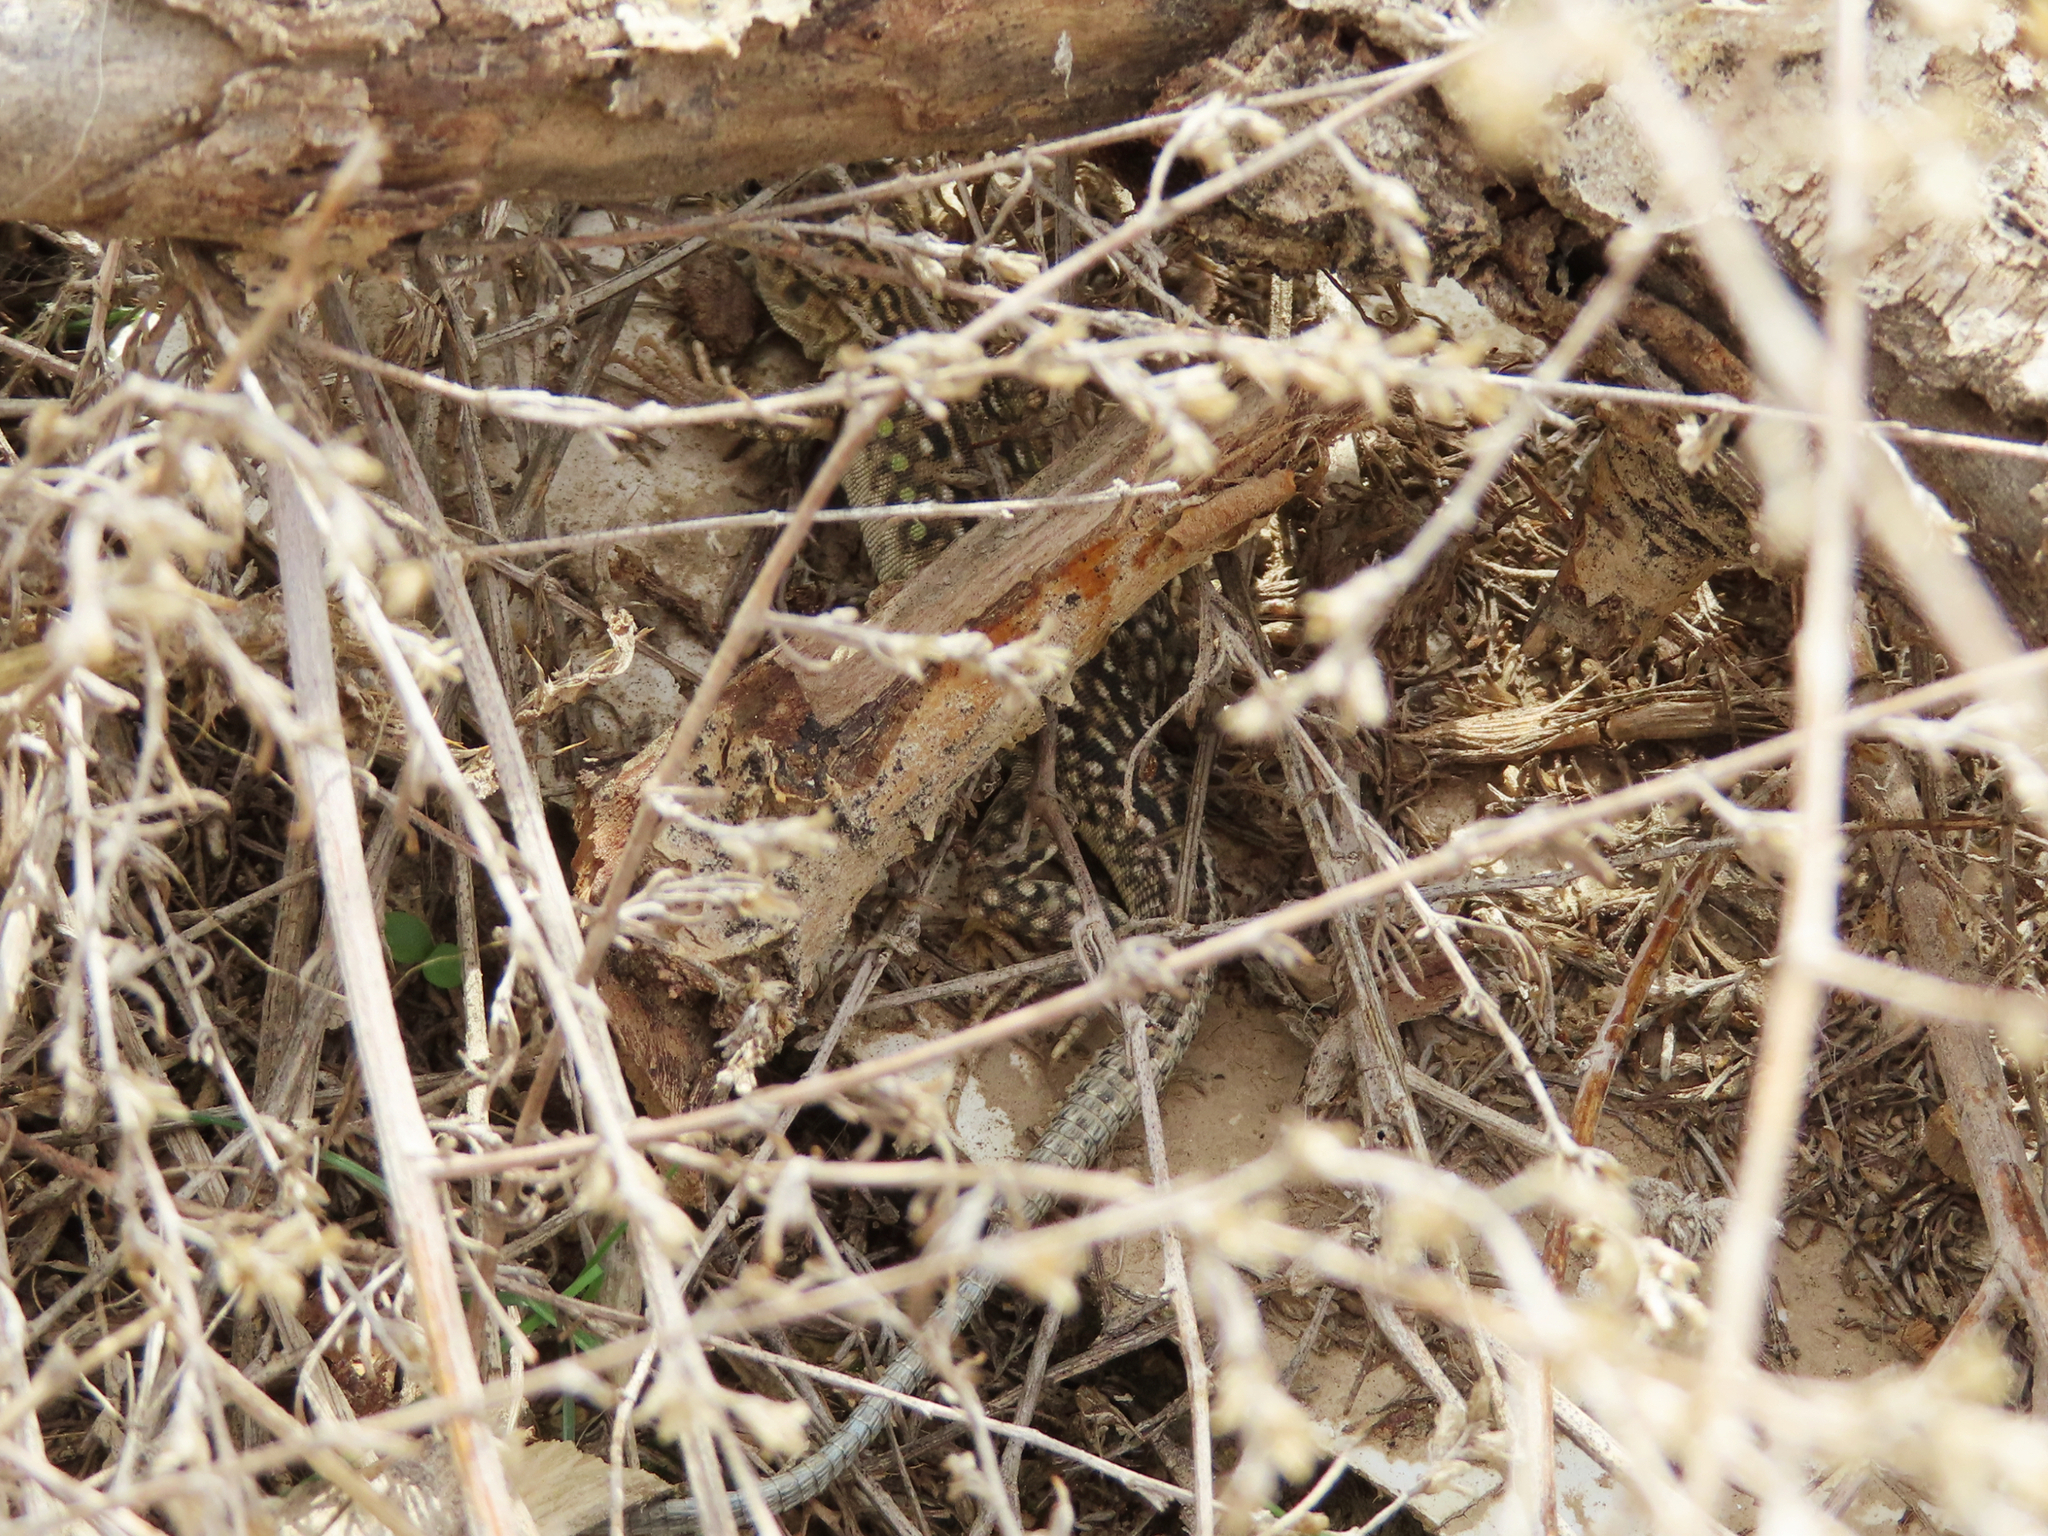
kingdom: Animalia
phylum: Chordata
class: Squamata
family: Lacertidae
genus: Eremias
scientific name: Eremias strauchi
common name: Strauch's racerunner
